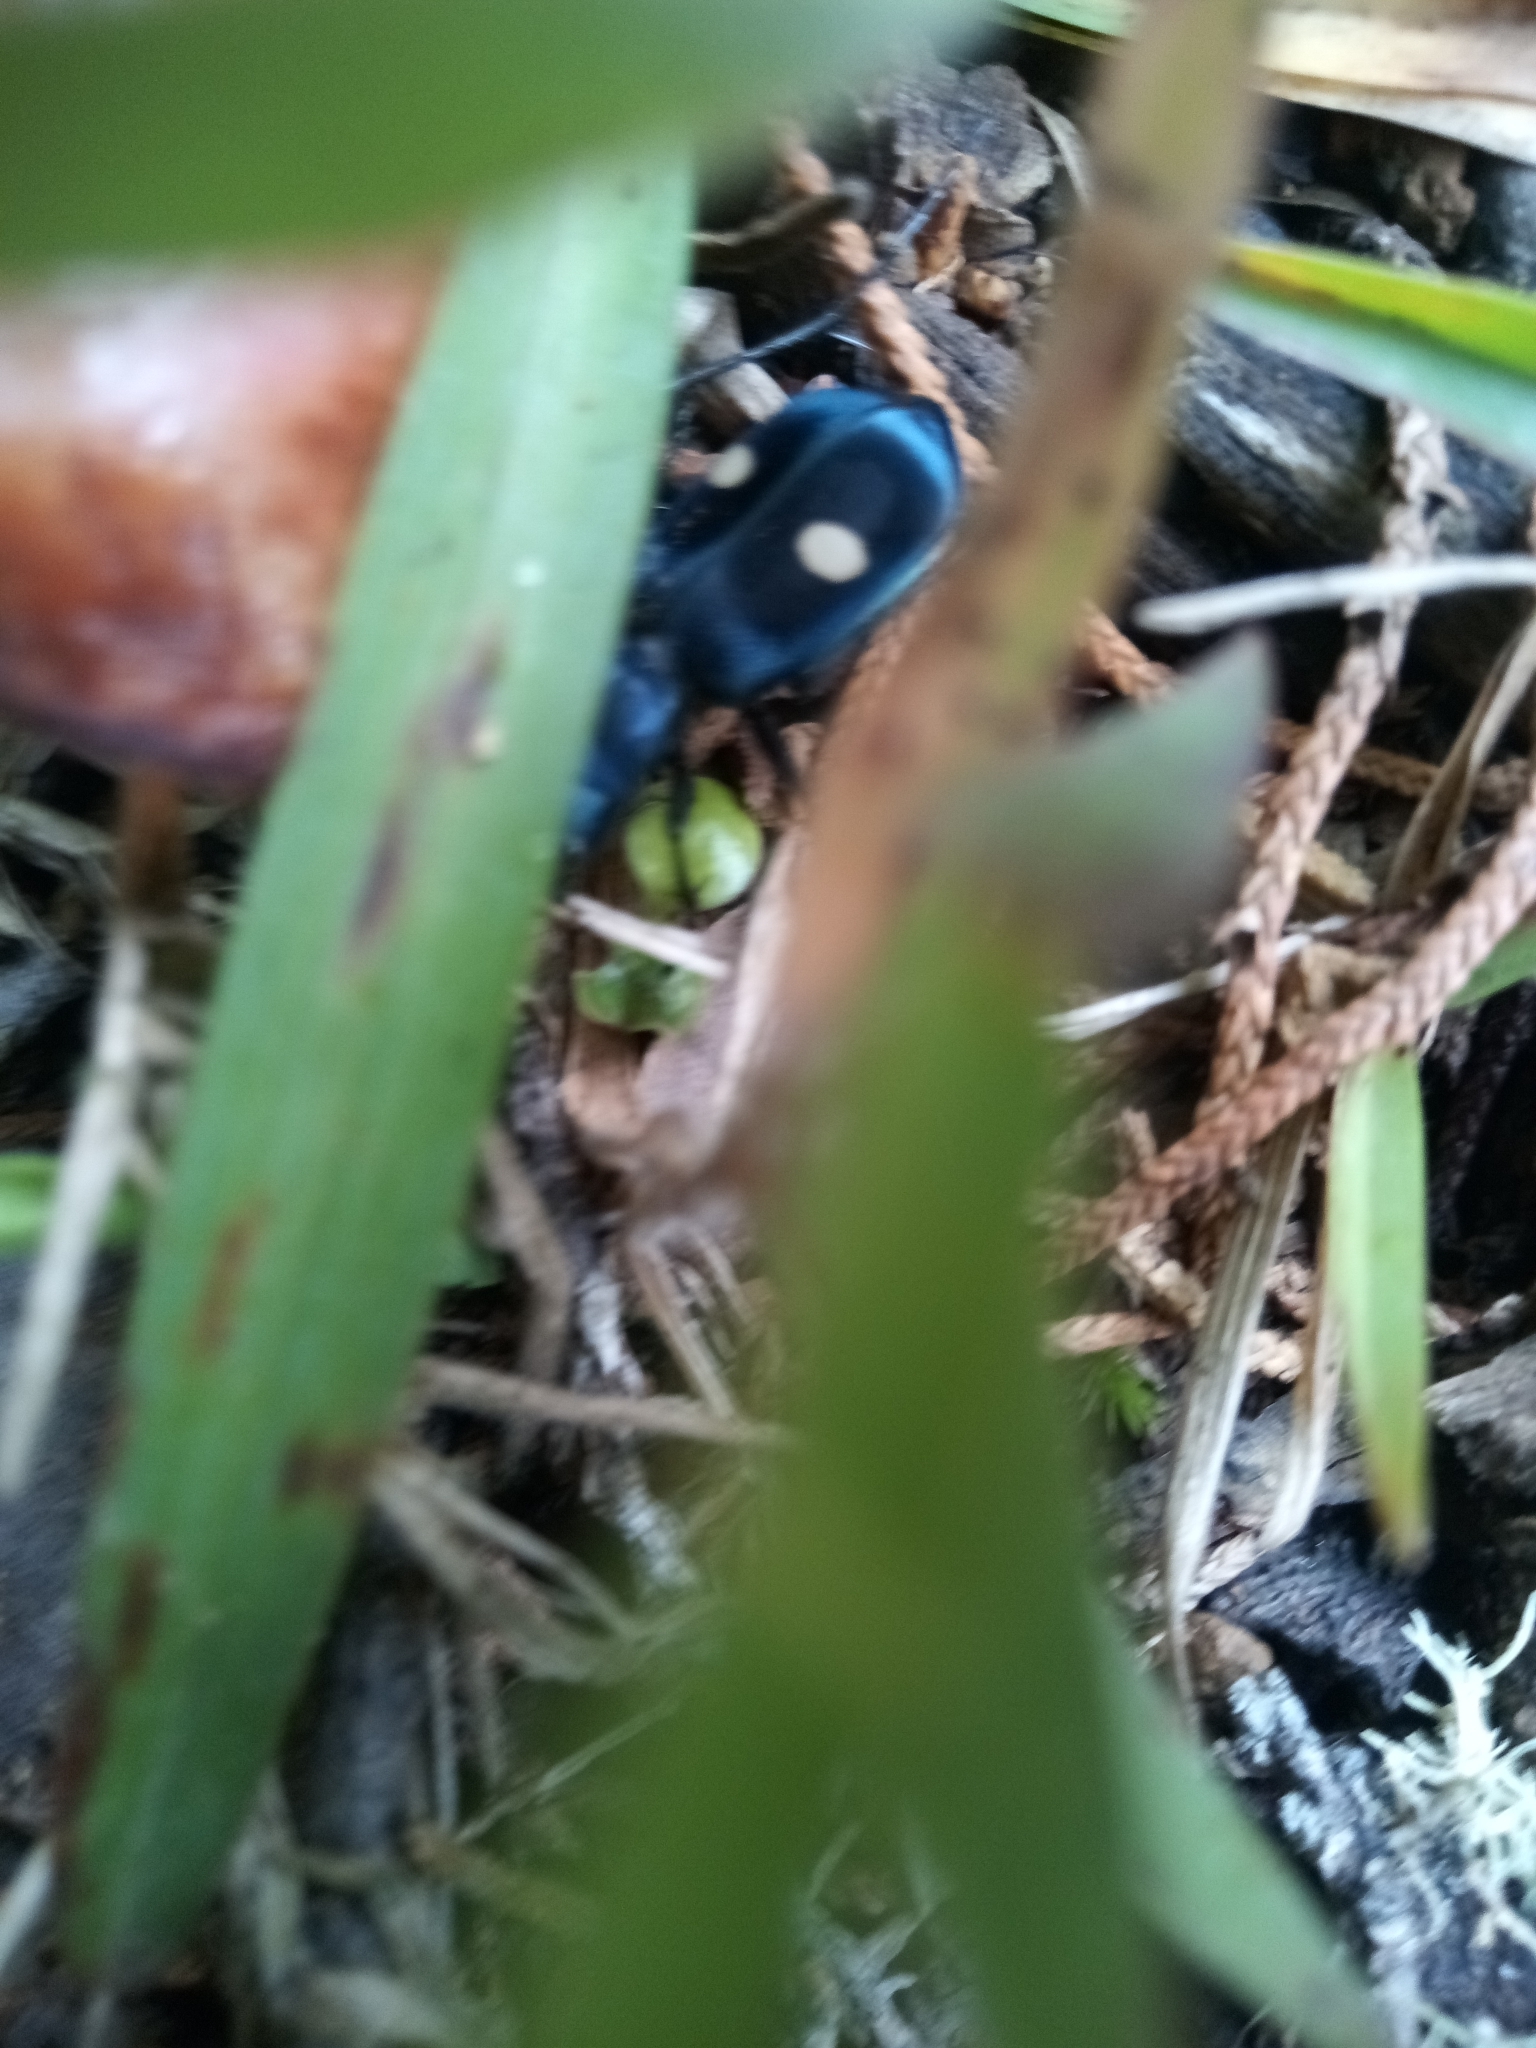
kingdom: Animalia
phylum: Arthropoda
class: Insecta
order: Coleoptera
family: Carabidae
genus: Pseudoxycheila
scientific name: Pseudoxycheila tarsalis
